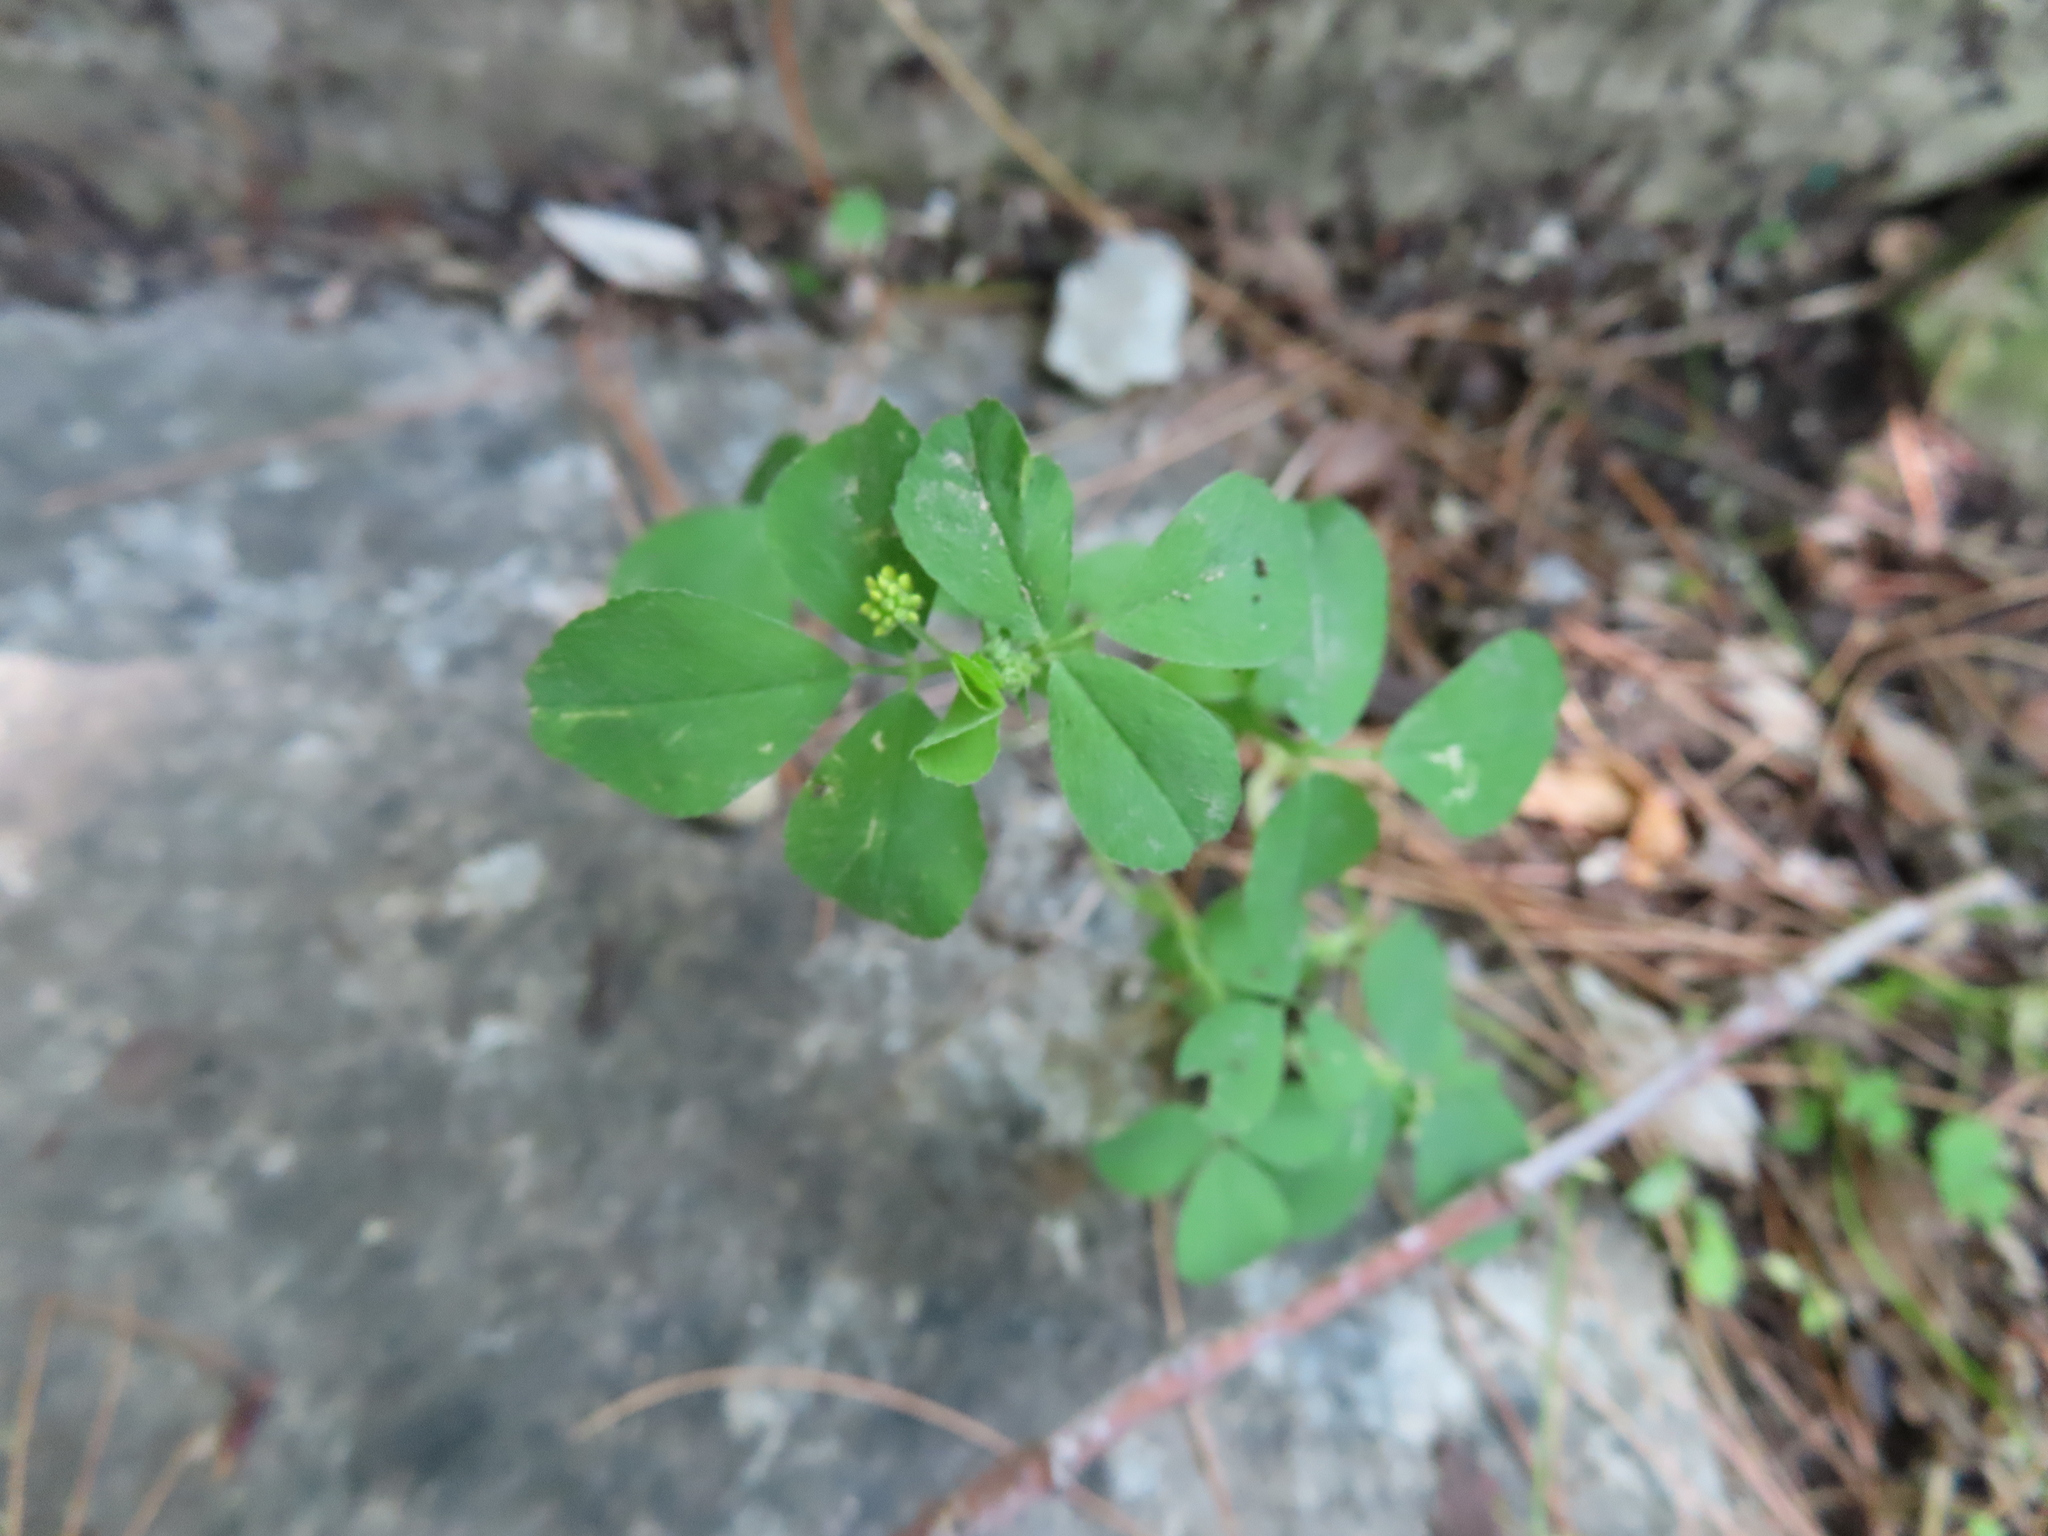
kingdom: Plantae
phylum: Tracheophyta
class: Magnoliopsida
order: Fabales
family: Fabaceae
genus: Medicago
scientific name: Medicago lupulina
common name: Black medick
